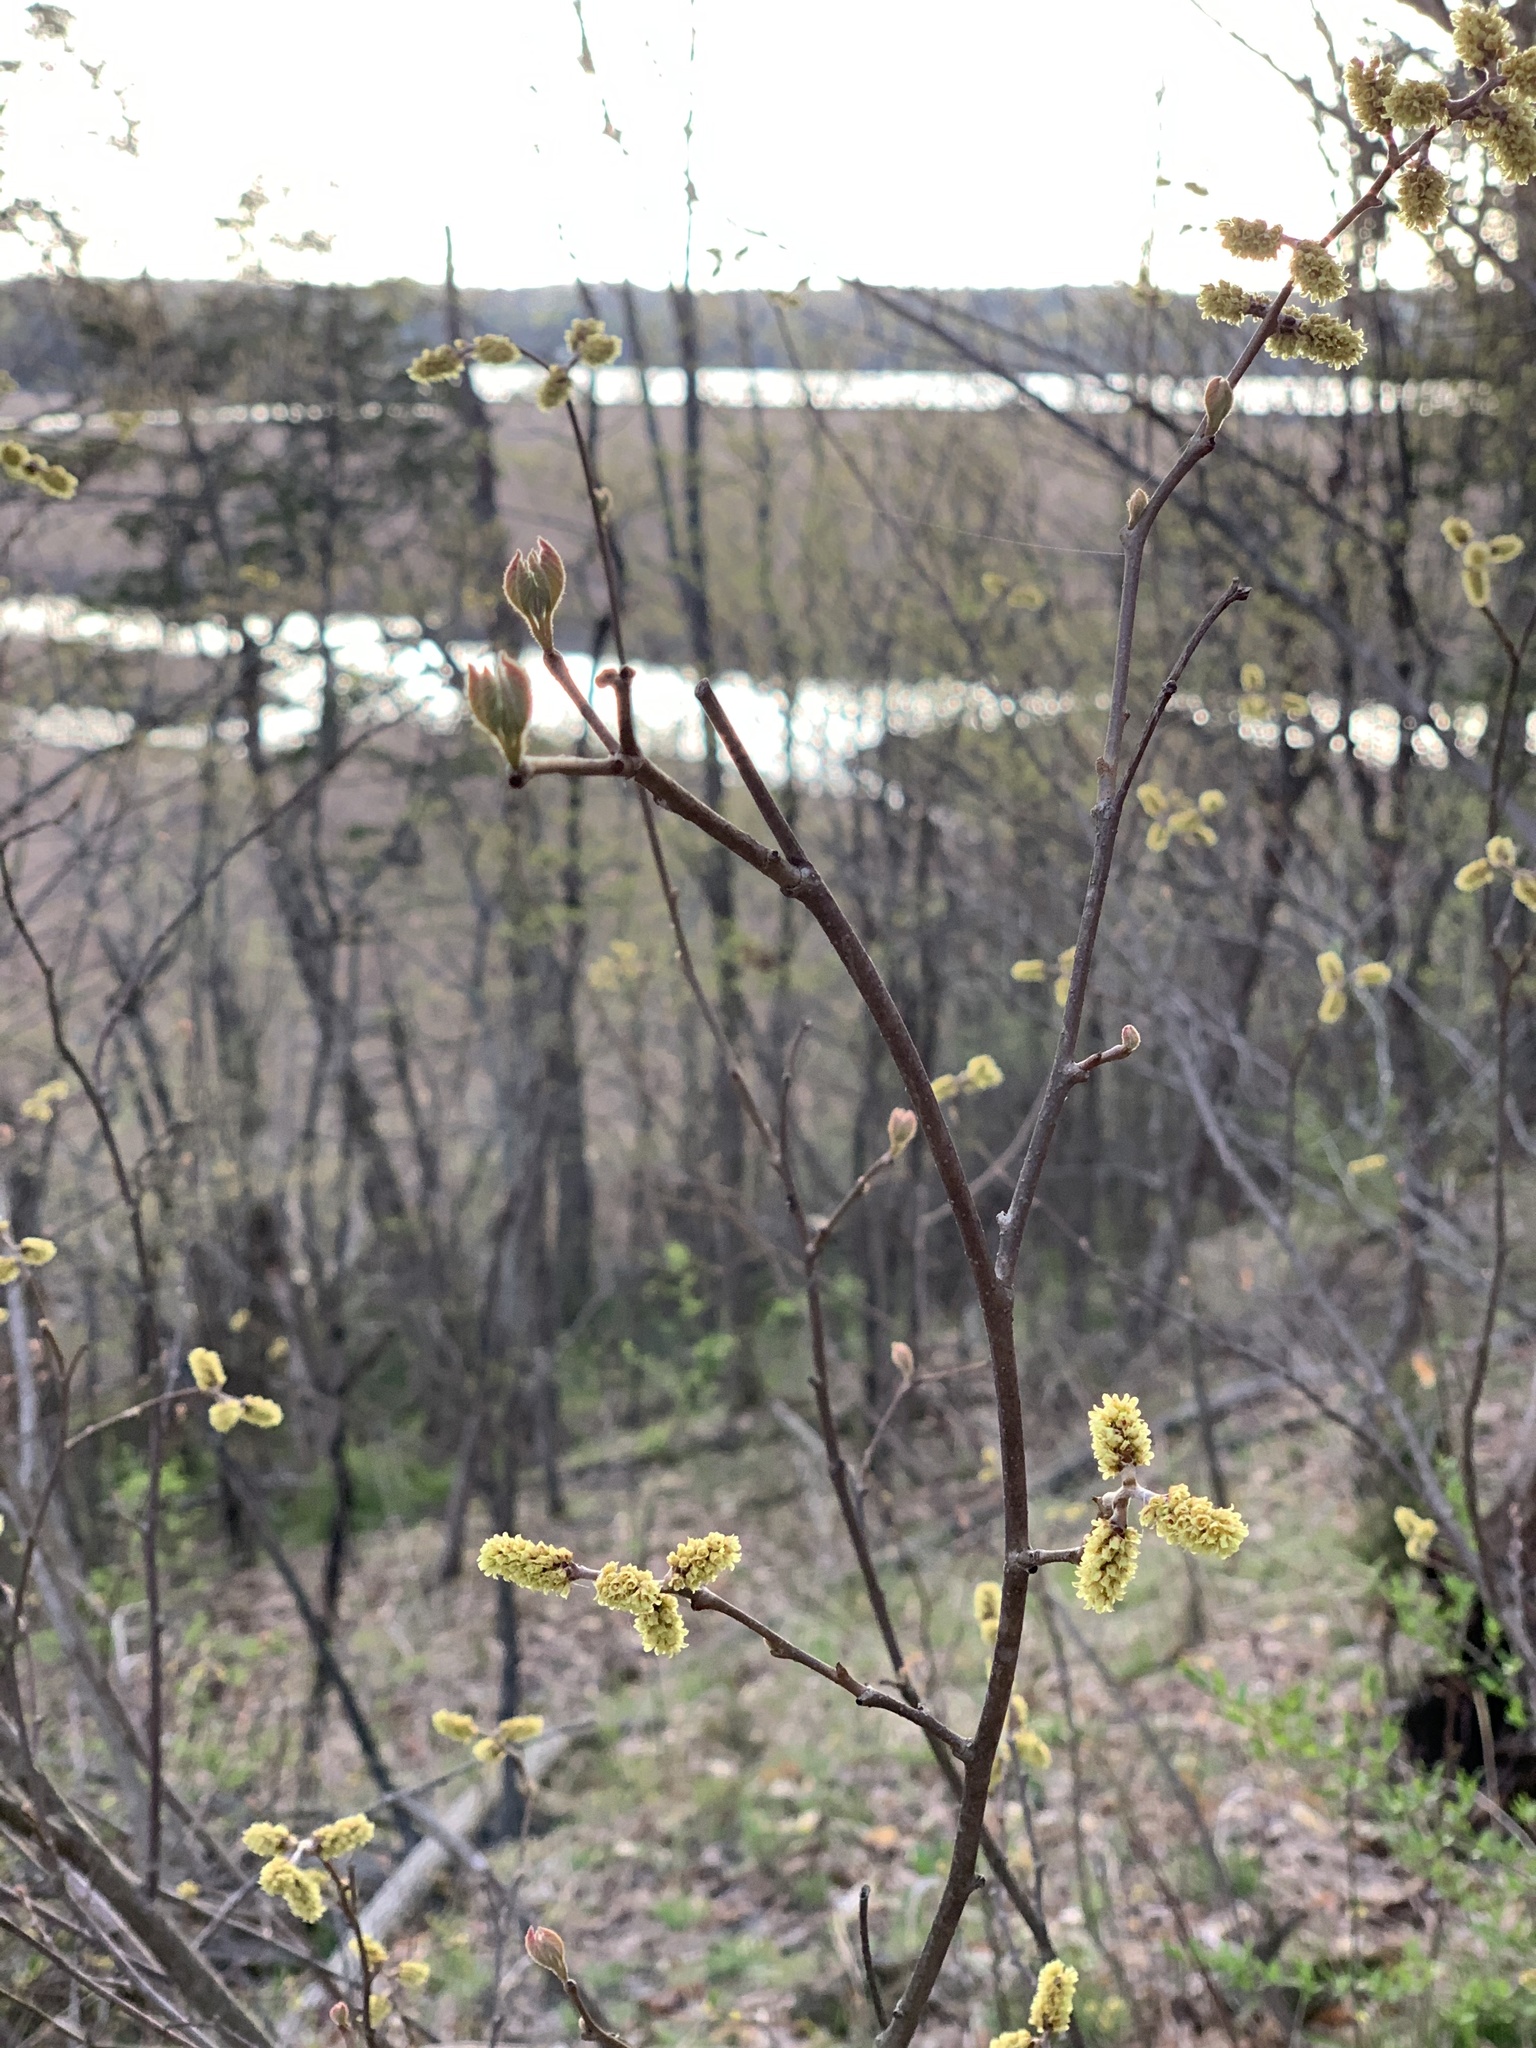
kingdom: Plantae
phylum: Tracheophyta
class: Magnoliopsida
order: Sapindales
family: Anacardiaceae
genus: Rhus
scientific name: Rhus aromatica
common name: Aromatic sumac
